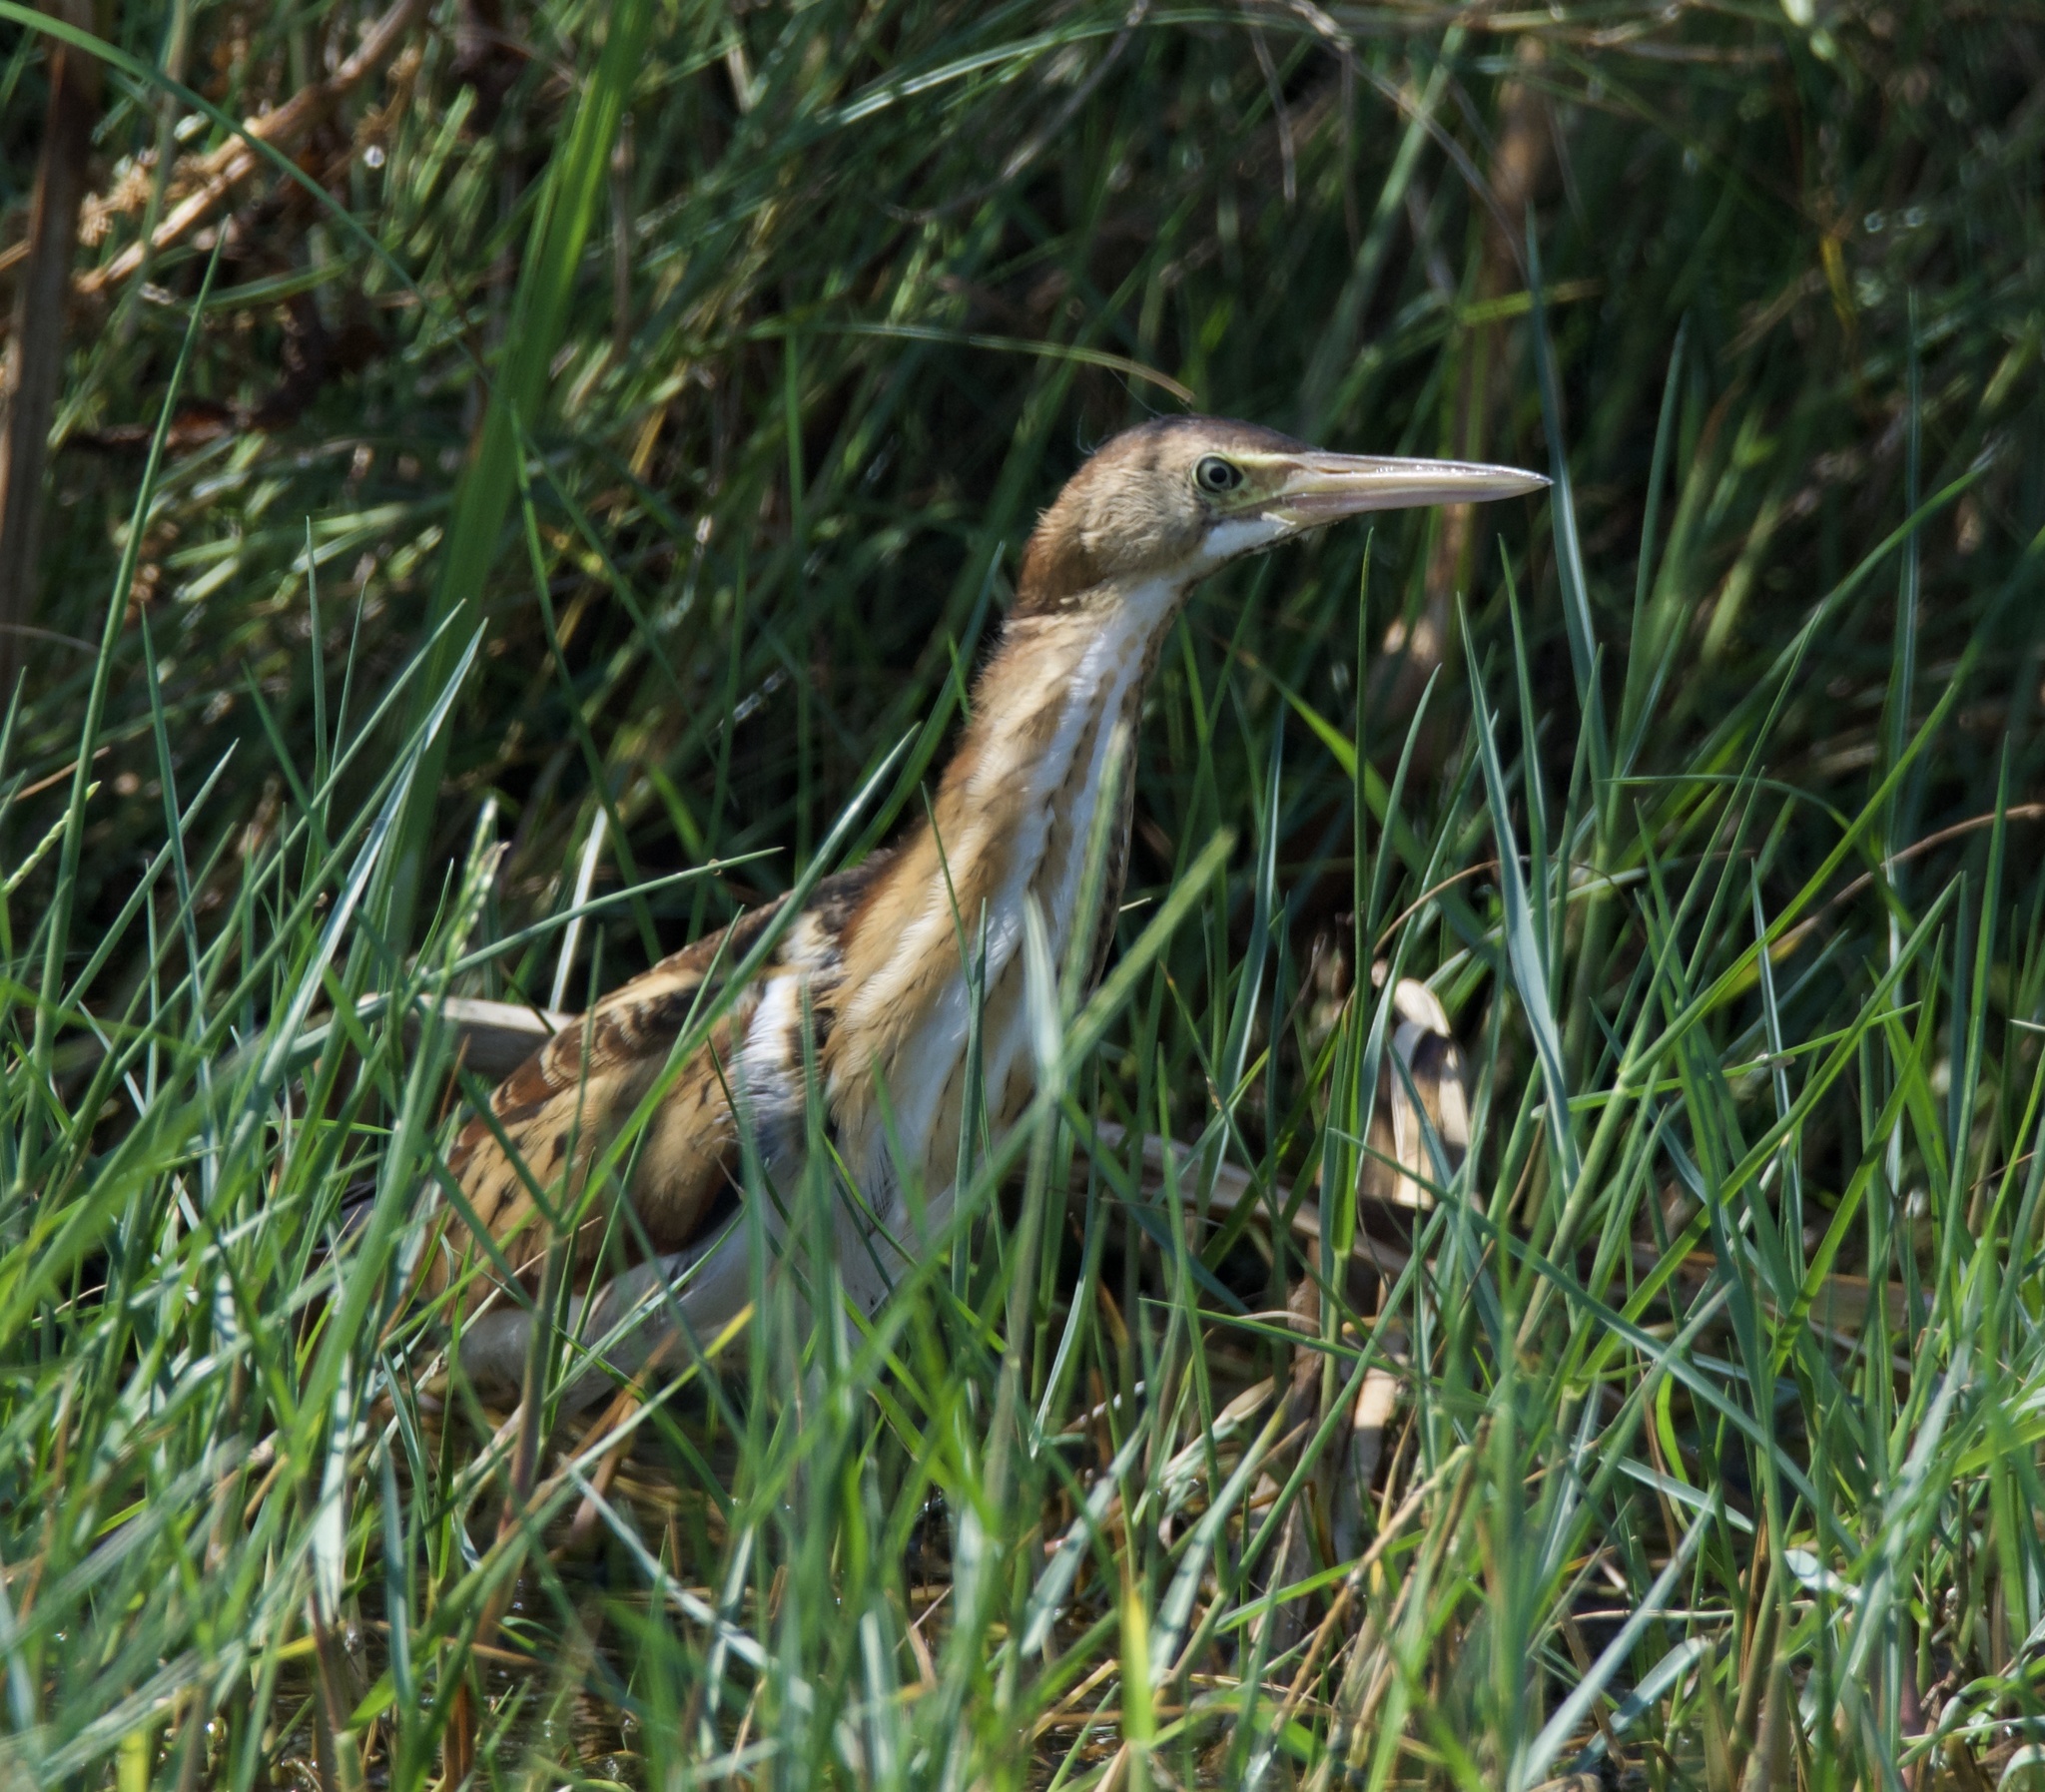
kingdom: Animalia
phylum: Chordata
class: Aves
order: Pelecaniformes
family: Ardeidae
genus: Ixobrychus
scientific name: Ixobrychus exilis
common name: Least bittern
